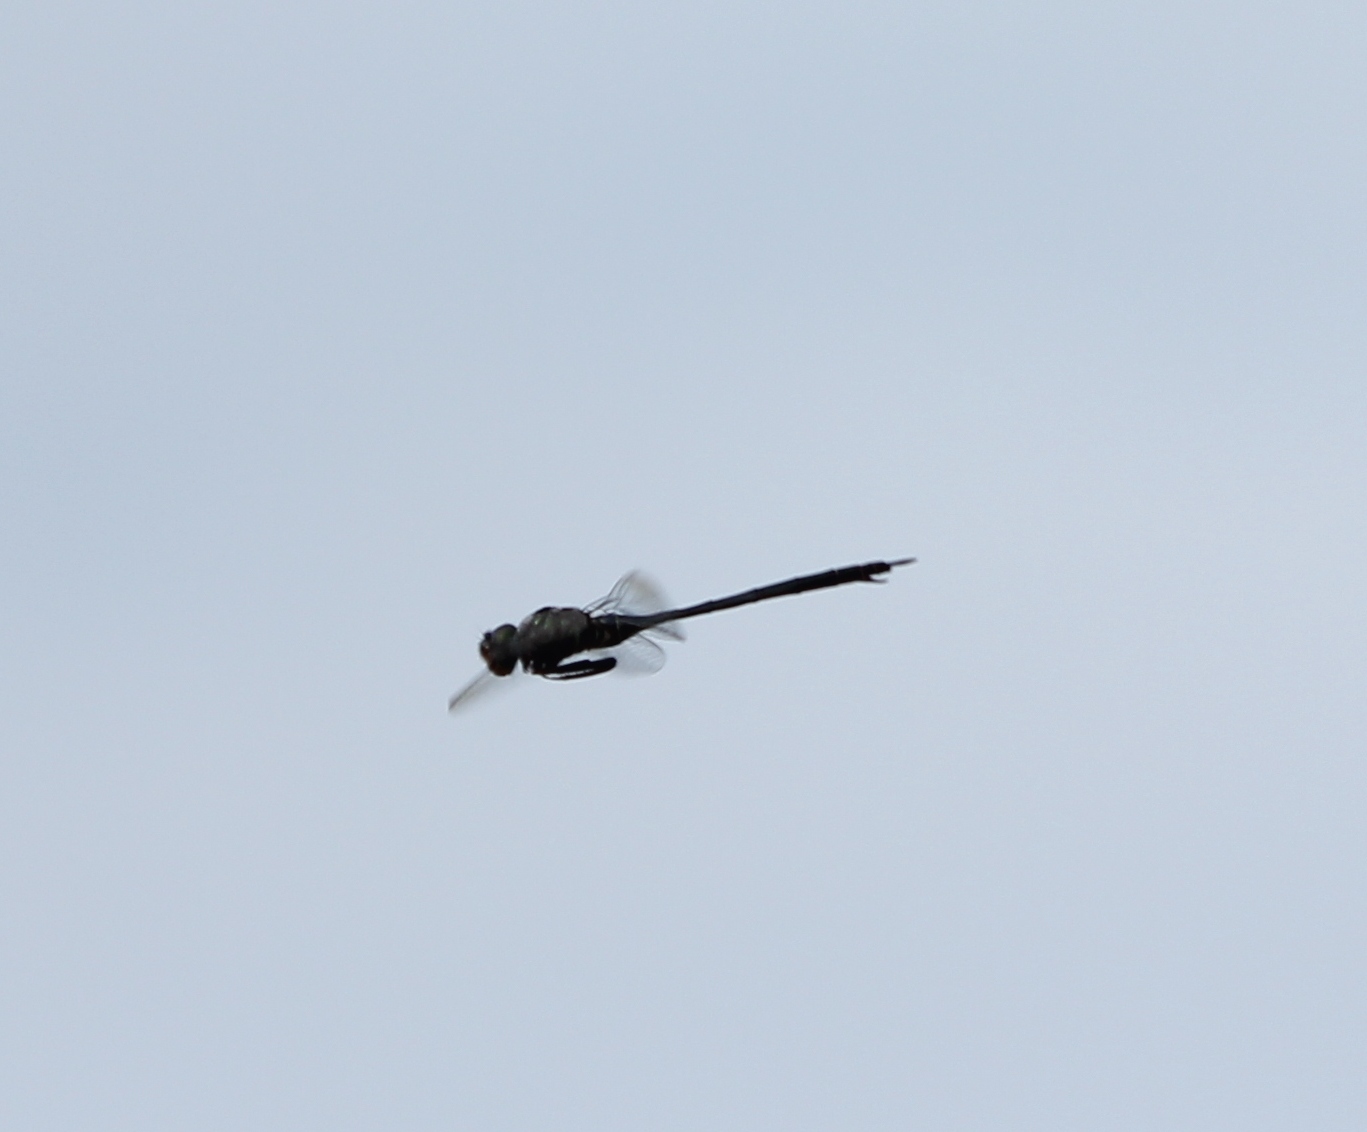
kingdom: Animalia
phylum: Arthropoda
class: Insecta
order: Odonata
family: Corduliidae
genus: Somatochlora
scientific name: Somatochlora filosa
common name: Fine-lined emerald
